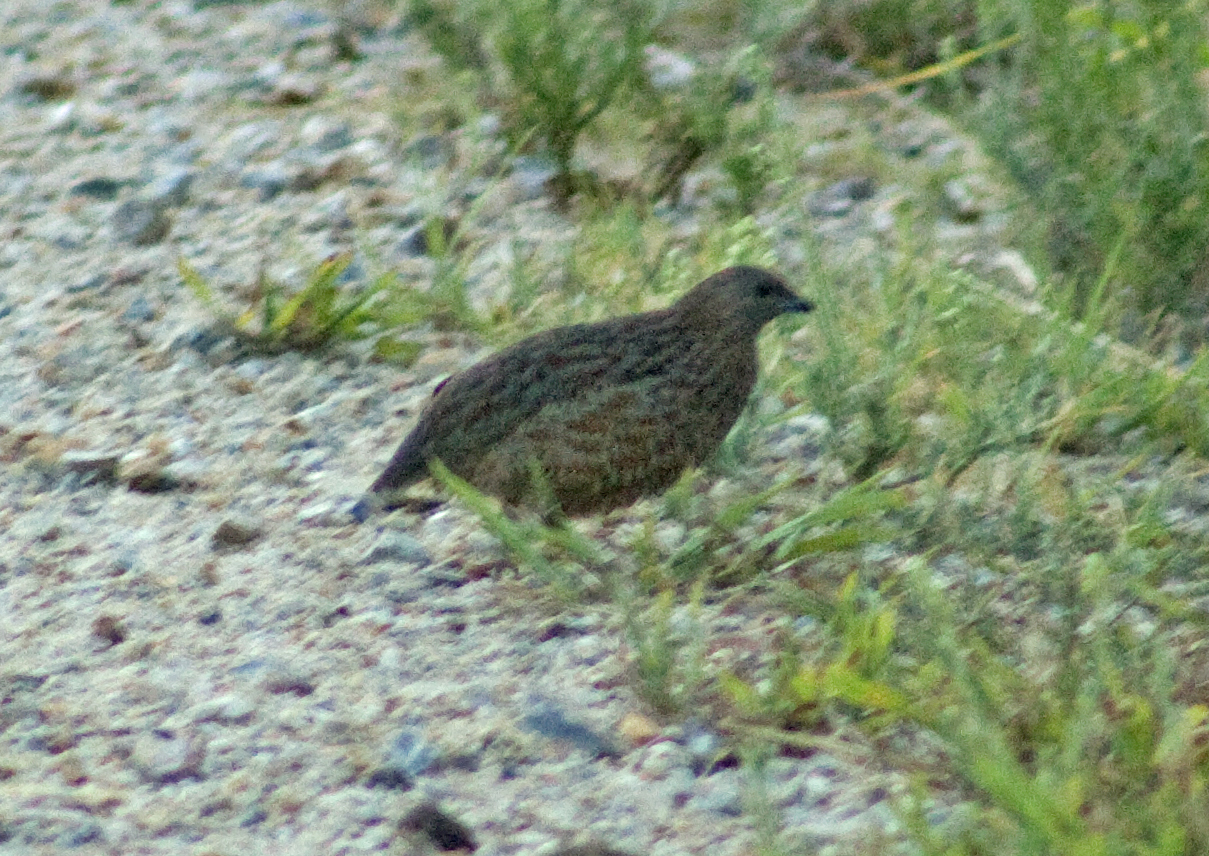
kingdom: Animalia
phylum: Chordata
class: Aves
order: Galliformes
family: Phasianidae
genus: Synoicus
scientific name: Synoicus ypsilophorus
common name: Brown quail
